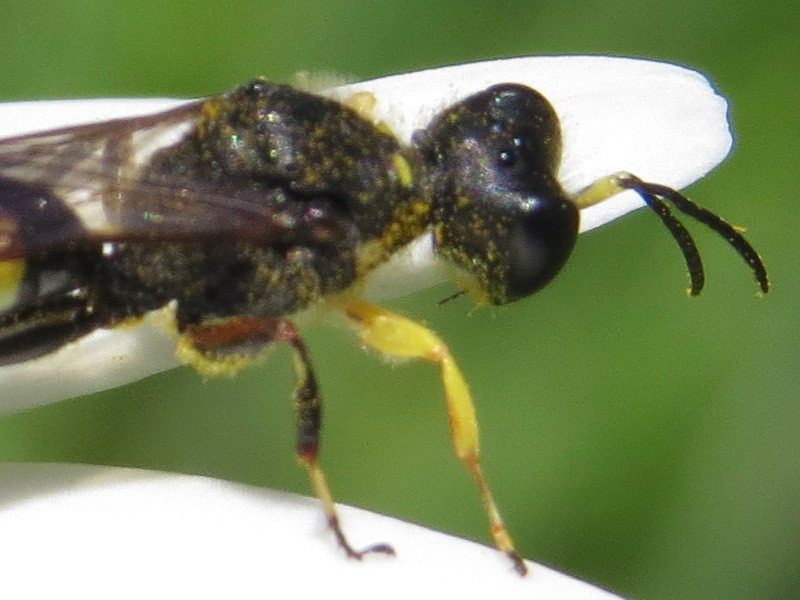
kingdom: Animalia
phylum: Arthropoda
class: Insecta
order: Hymenoptera
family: Crabronidae
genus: Ectemnius
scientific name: Ectemnius maculosus
